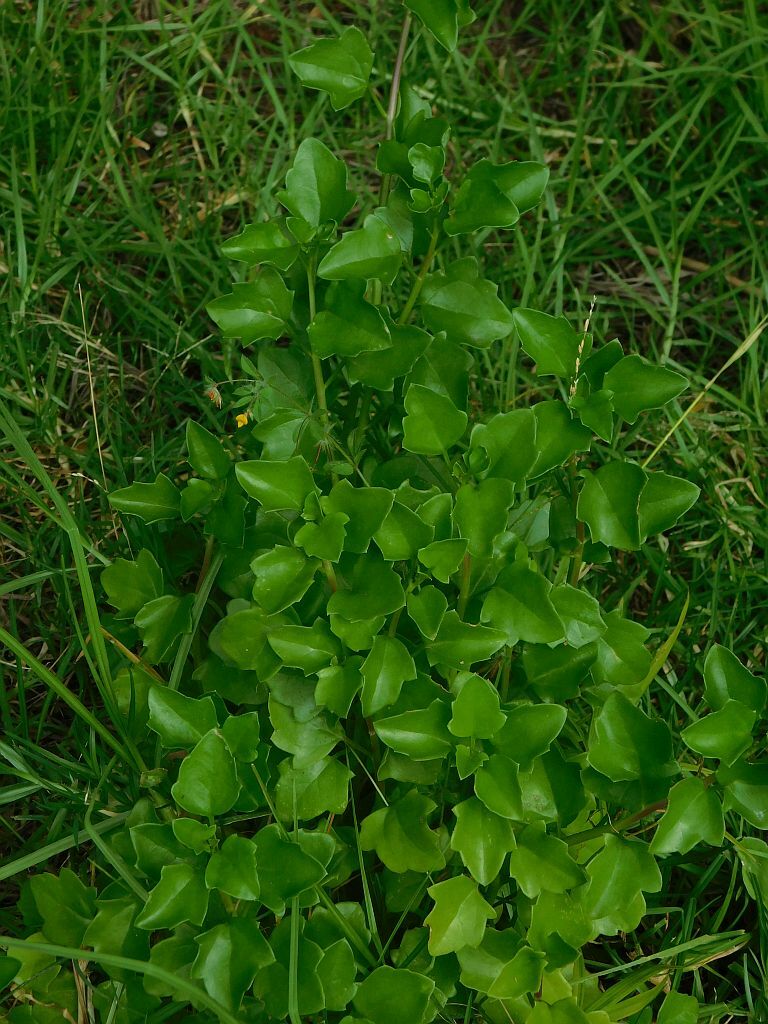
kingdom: Plantae
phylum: Tracheophyta
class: Magnoliopsida
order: Asterales
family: Asteraceae
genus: Senecio
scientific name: Senecio angulatus
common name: Climbing groundsel
